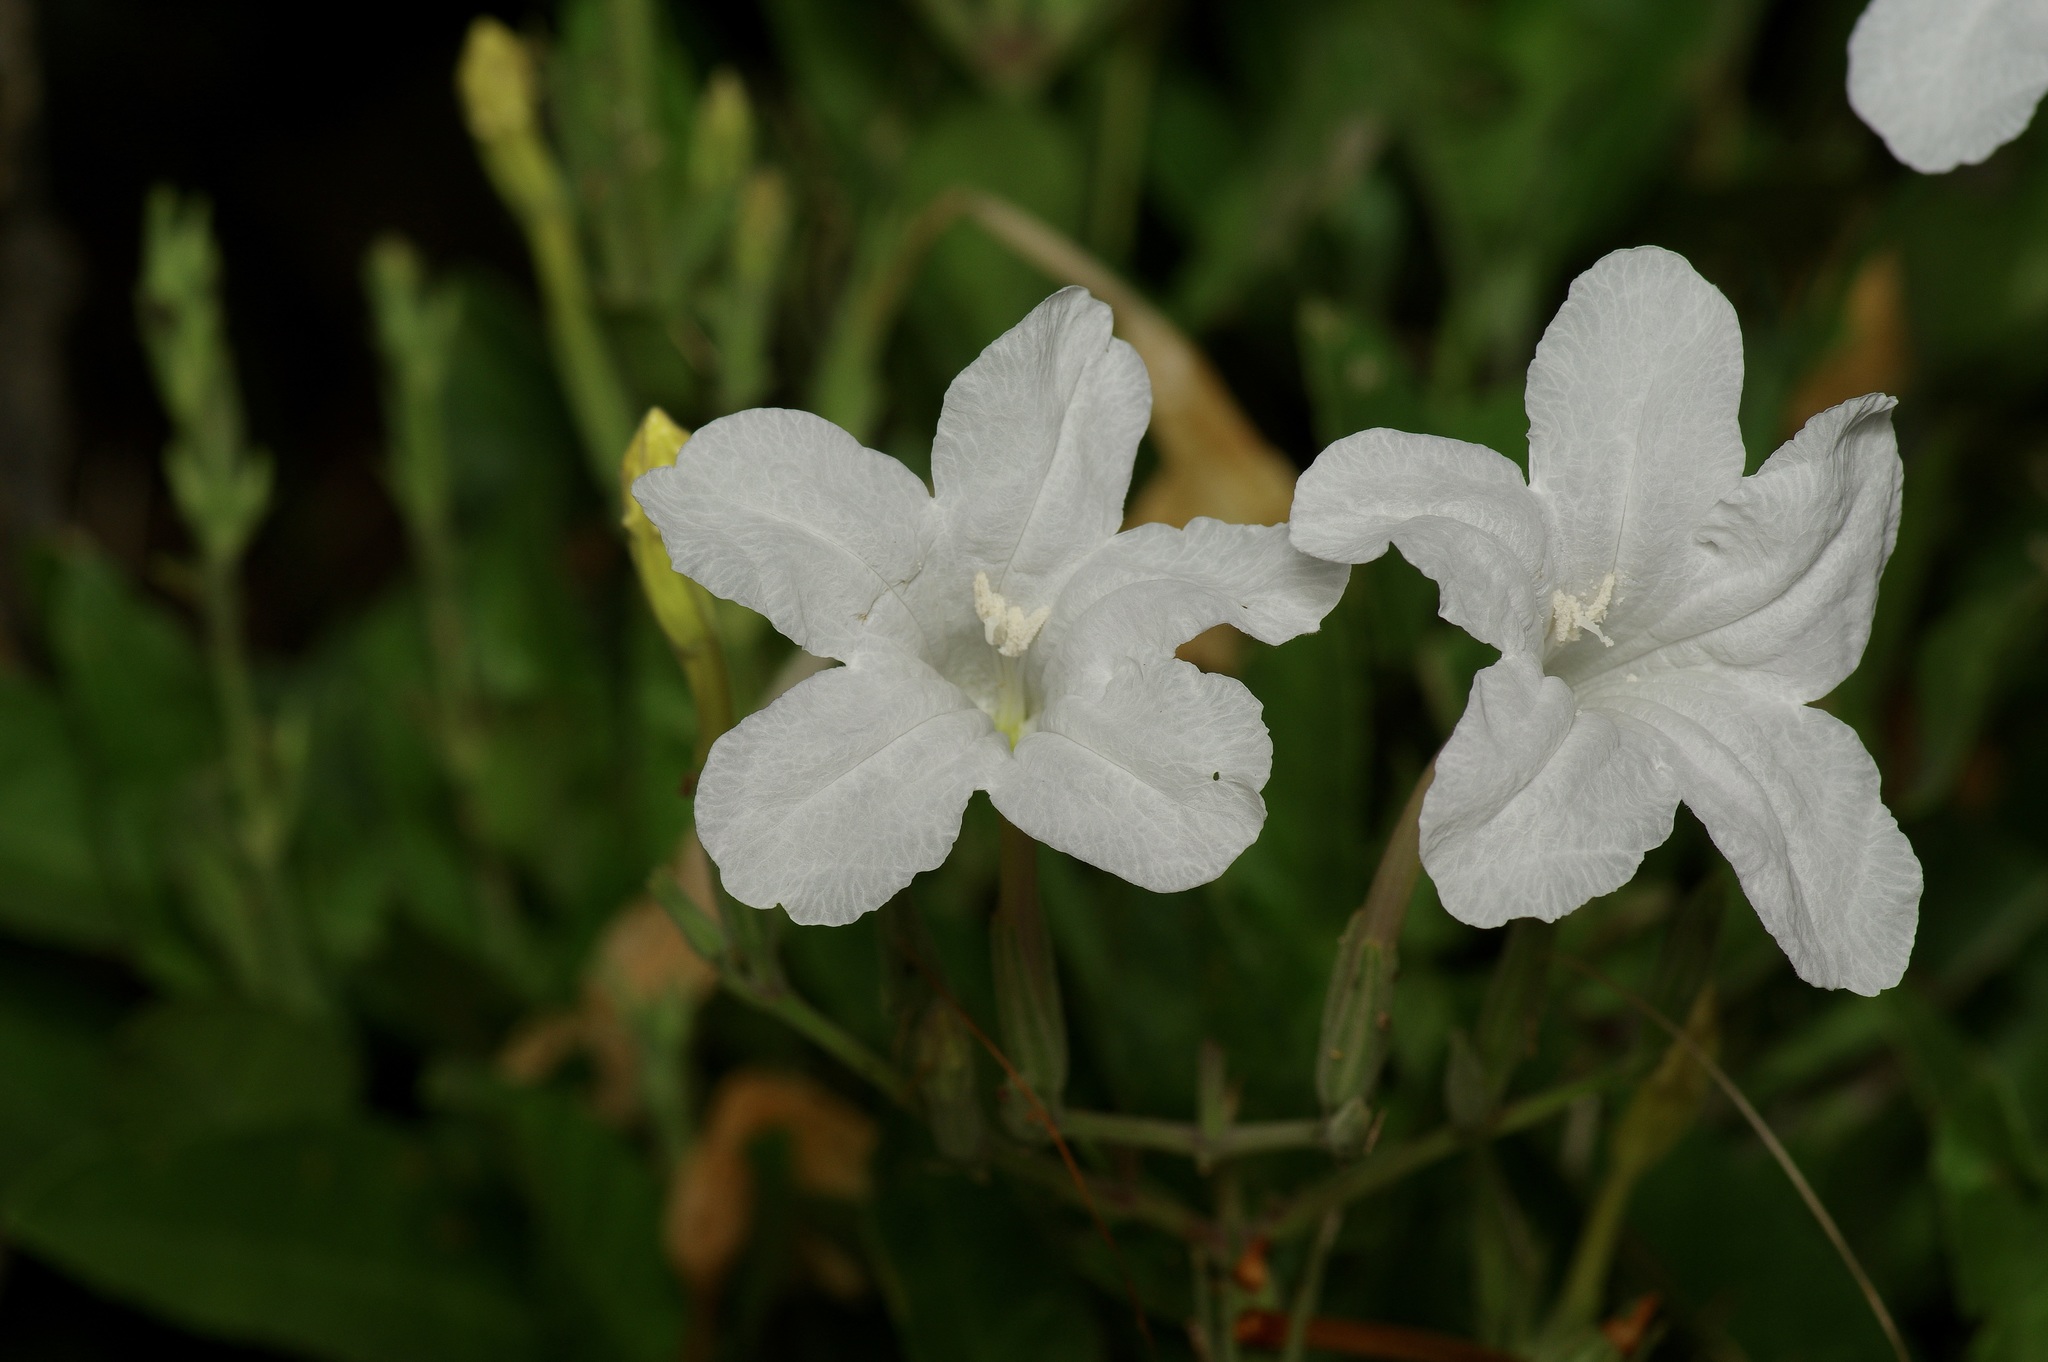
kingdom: Plantae
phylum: Tracheophyta
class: Magnoliopsida
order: Lamiales
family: Acanthaceae
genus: Ruellia
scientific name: Ruellia metziae
